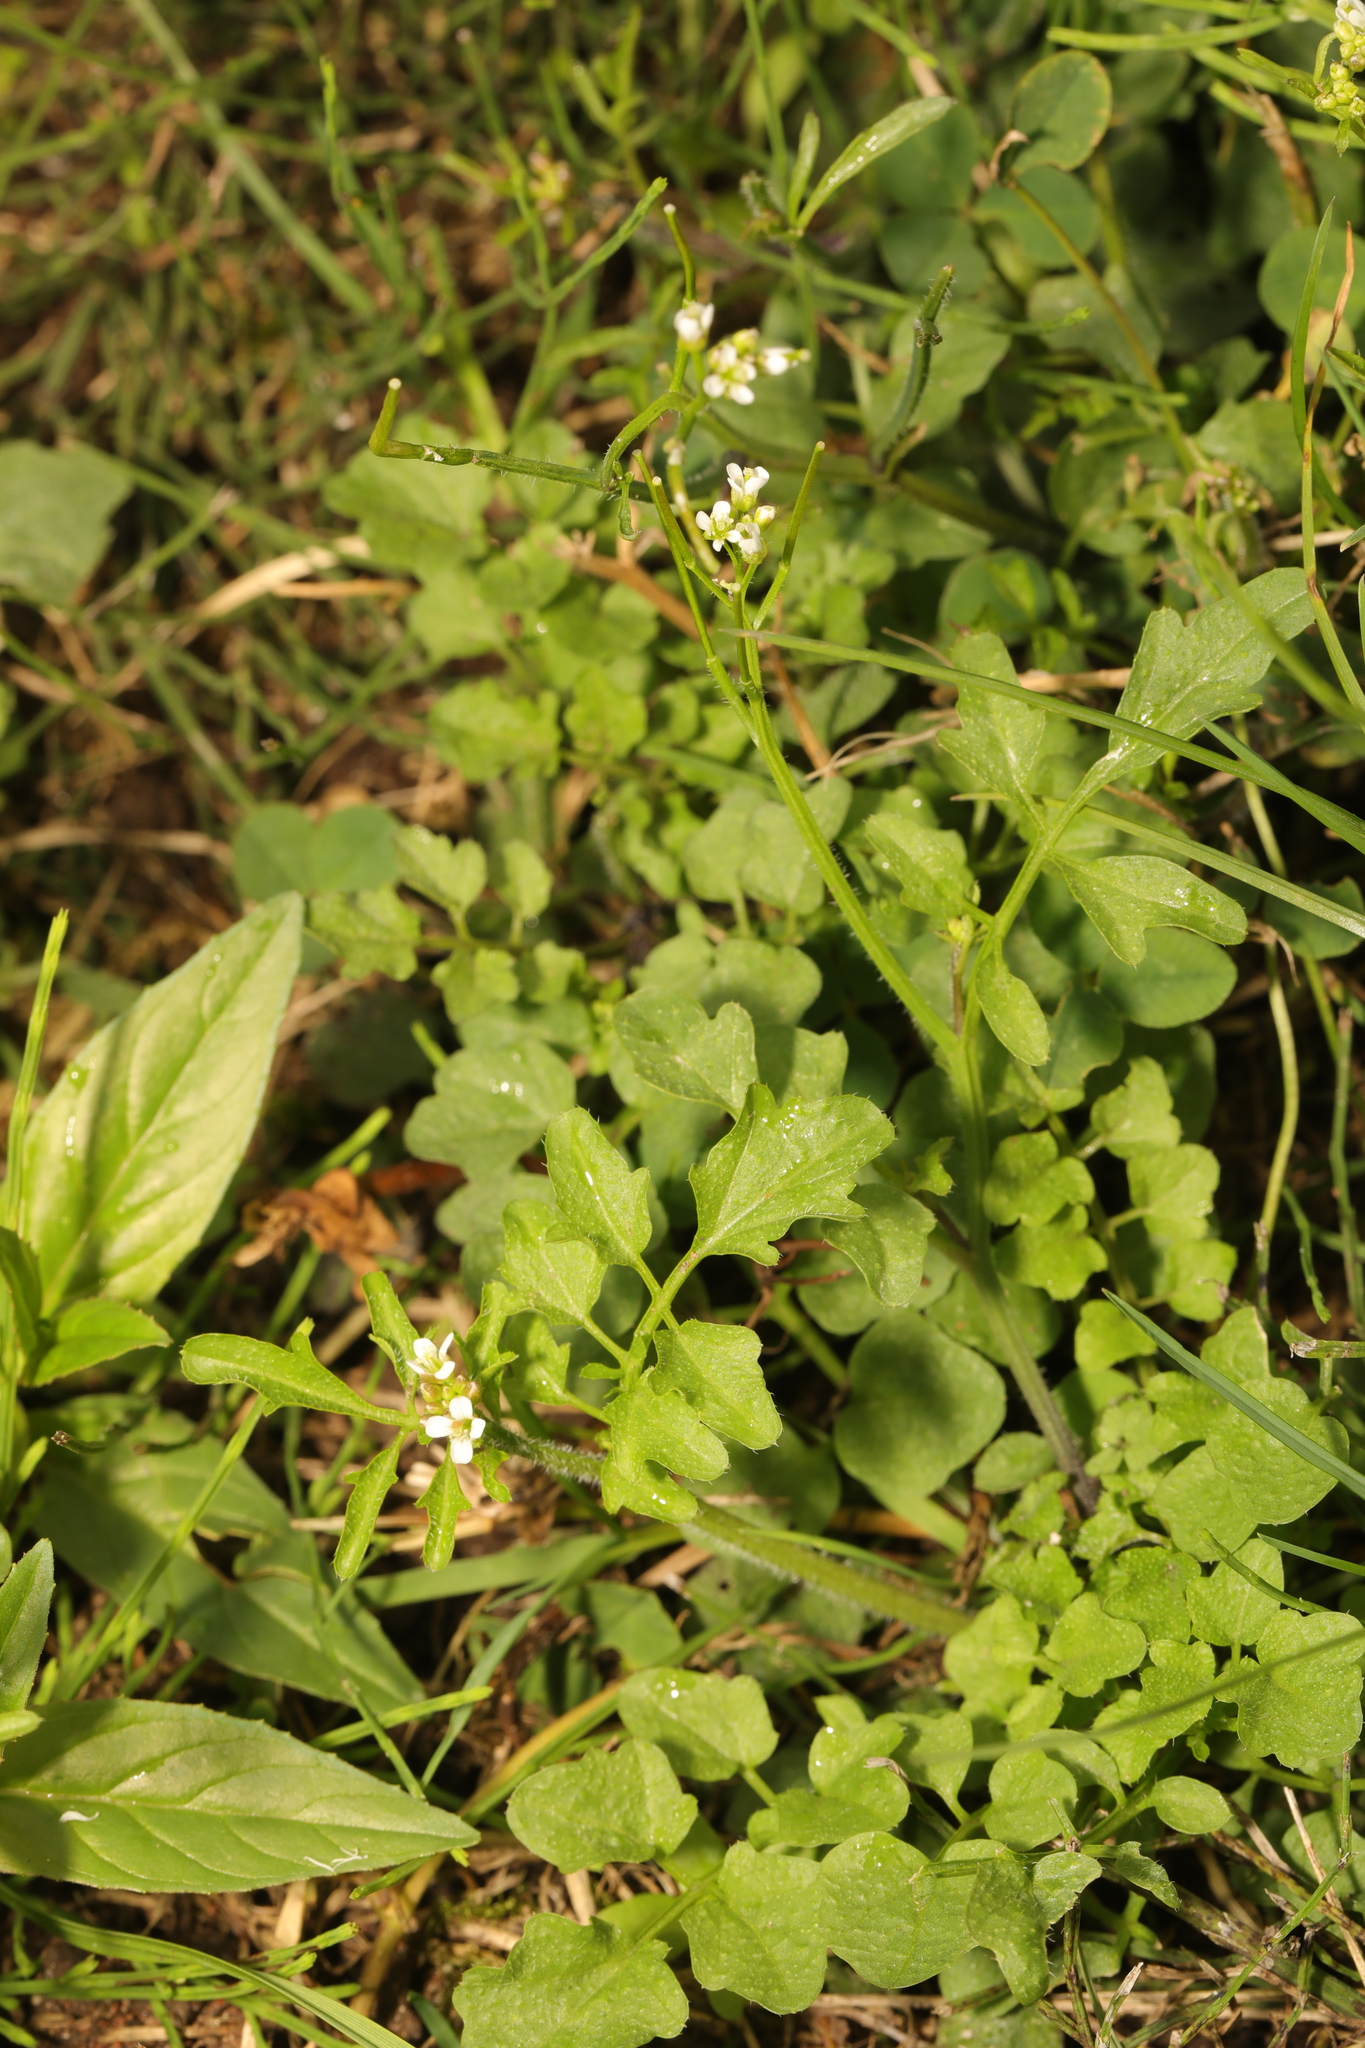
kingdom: Plantae
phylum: Tracheophyta
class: Magnoliopsida
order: Brassicales
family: Brassicaceae
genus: Cardamine
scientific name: Cardamine flexuosa
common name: Woodland bittercress
